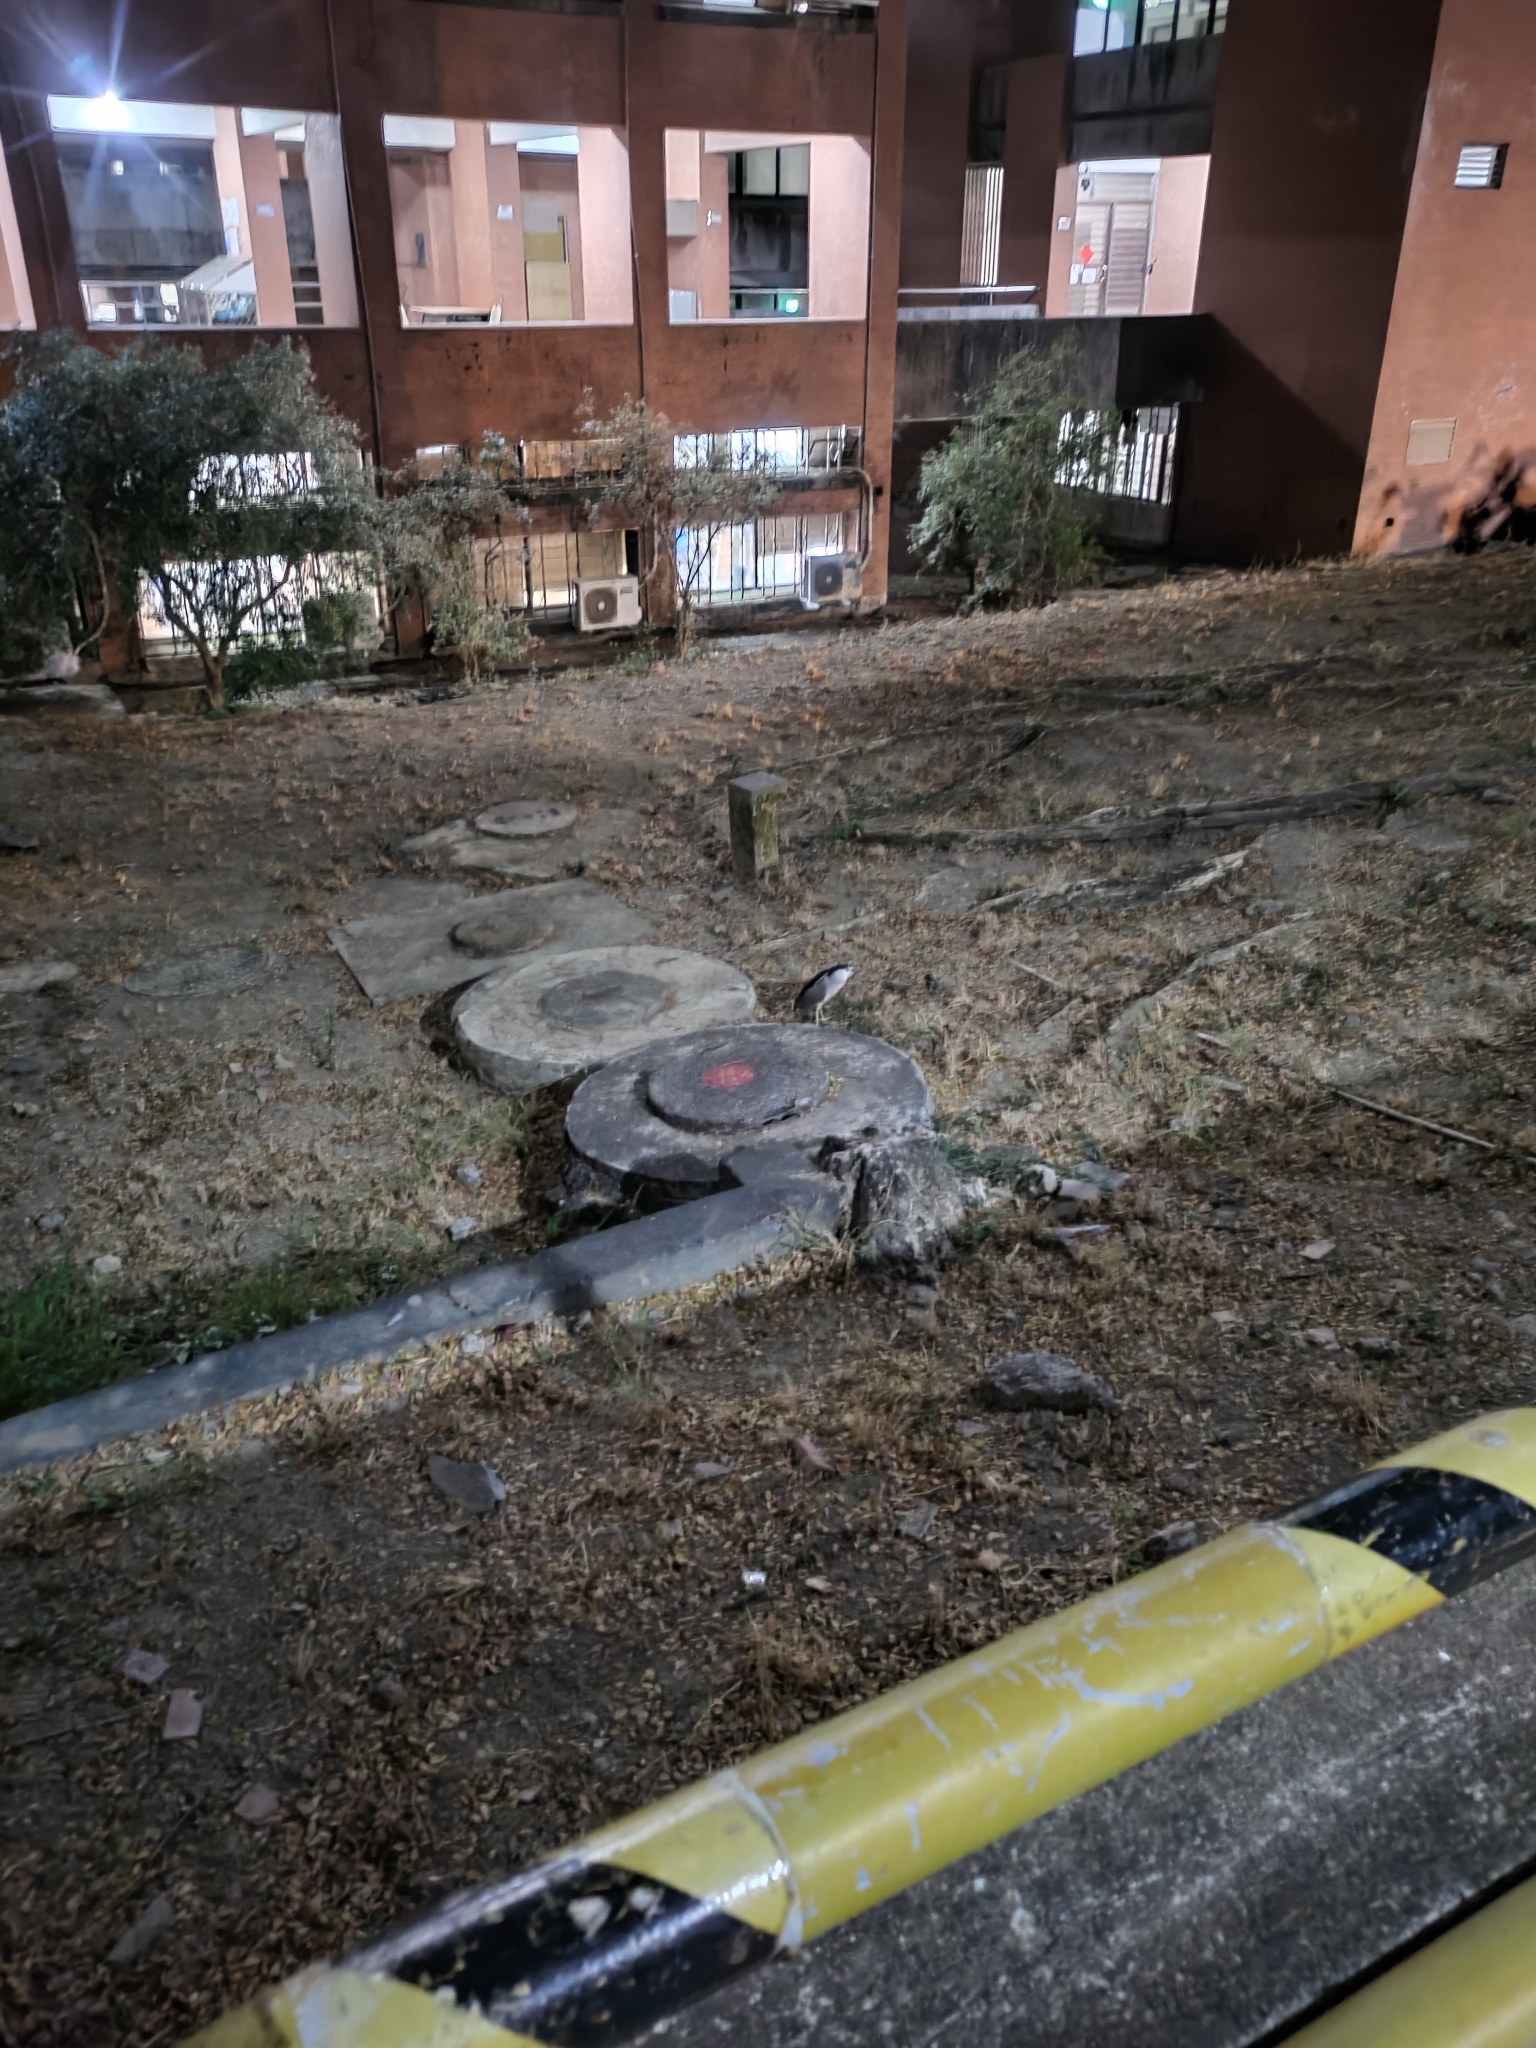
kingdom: Animalia
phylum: Chordata
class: Aves
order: Pelecaniformes
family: Ardeidae
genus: Nycticorax
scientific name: Nycticorax nycticorax
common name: Black-crowned night heron
